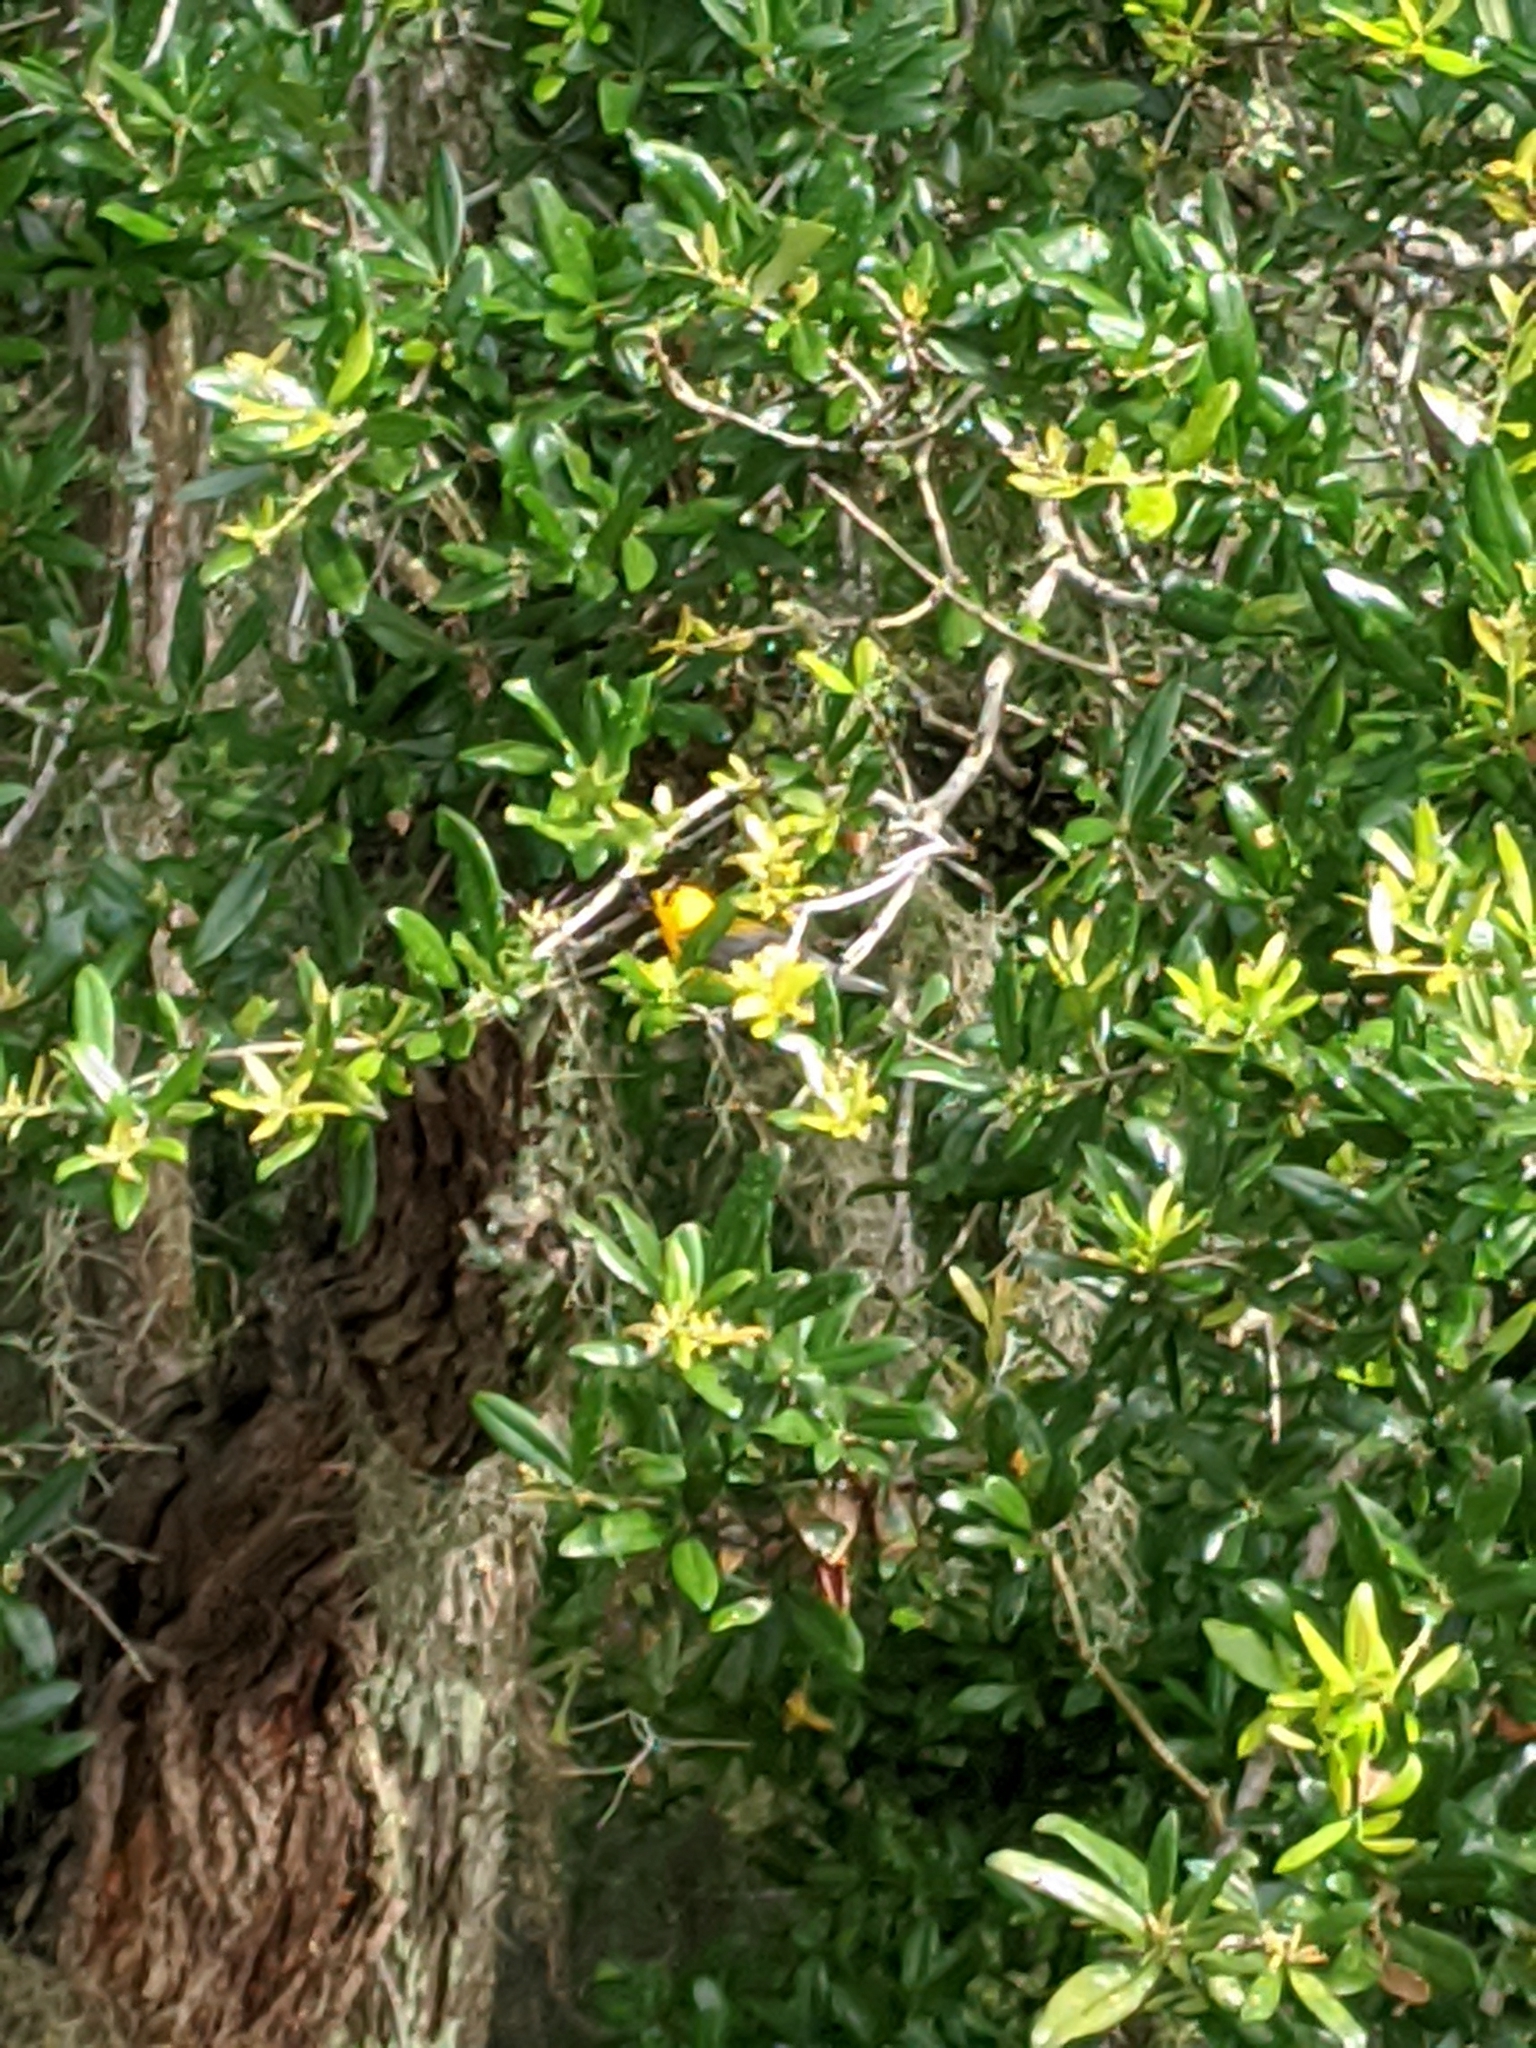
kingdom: Animalia
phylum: Chordata
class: Aves
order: Passeriformes
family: Parulidae
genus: Protonotaria
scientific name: Protonotaria citrea
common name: Prothonotary warbler
